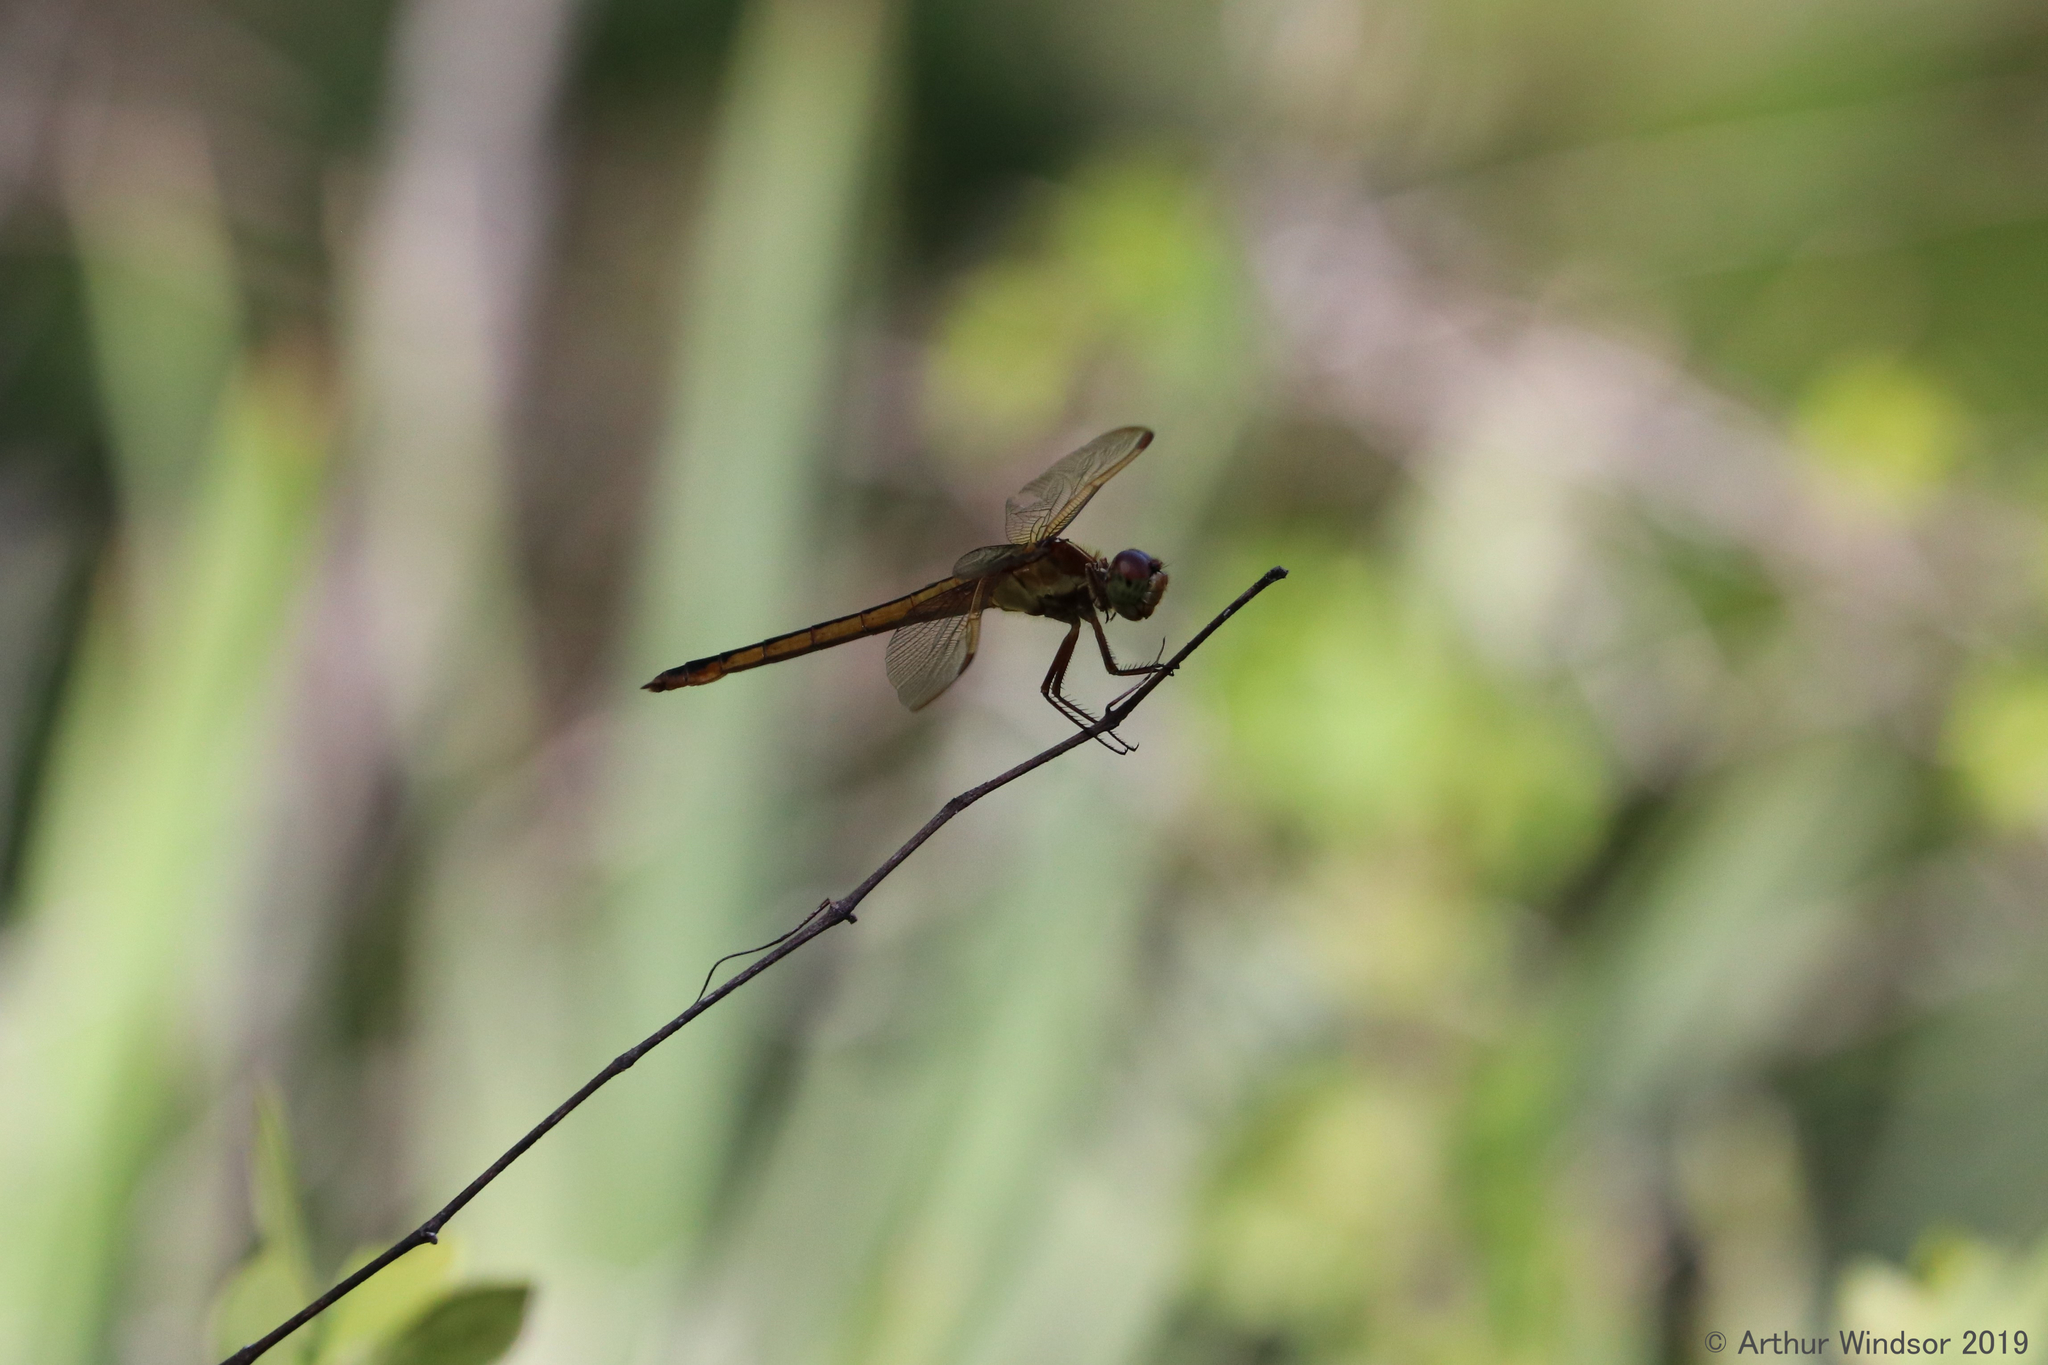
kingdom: Animalia
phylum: Arthropoda
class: Insecta
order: Odonata
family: Libellulidae
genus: Libellula
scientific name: Libellula needhami
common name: Needham's skimmer
